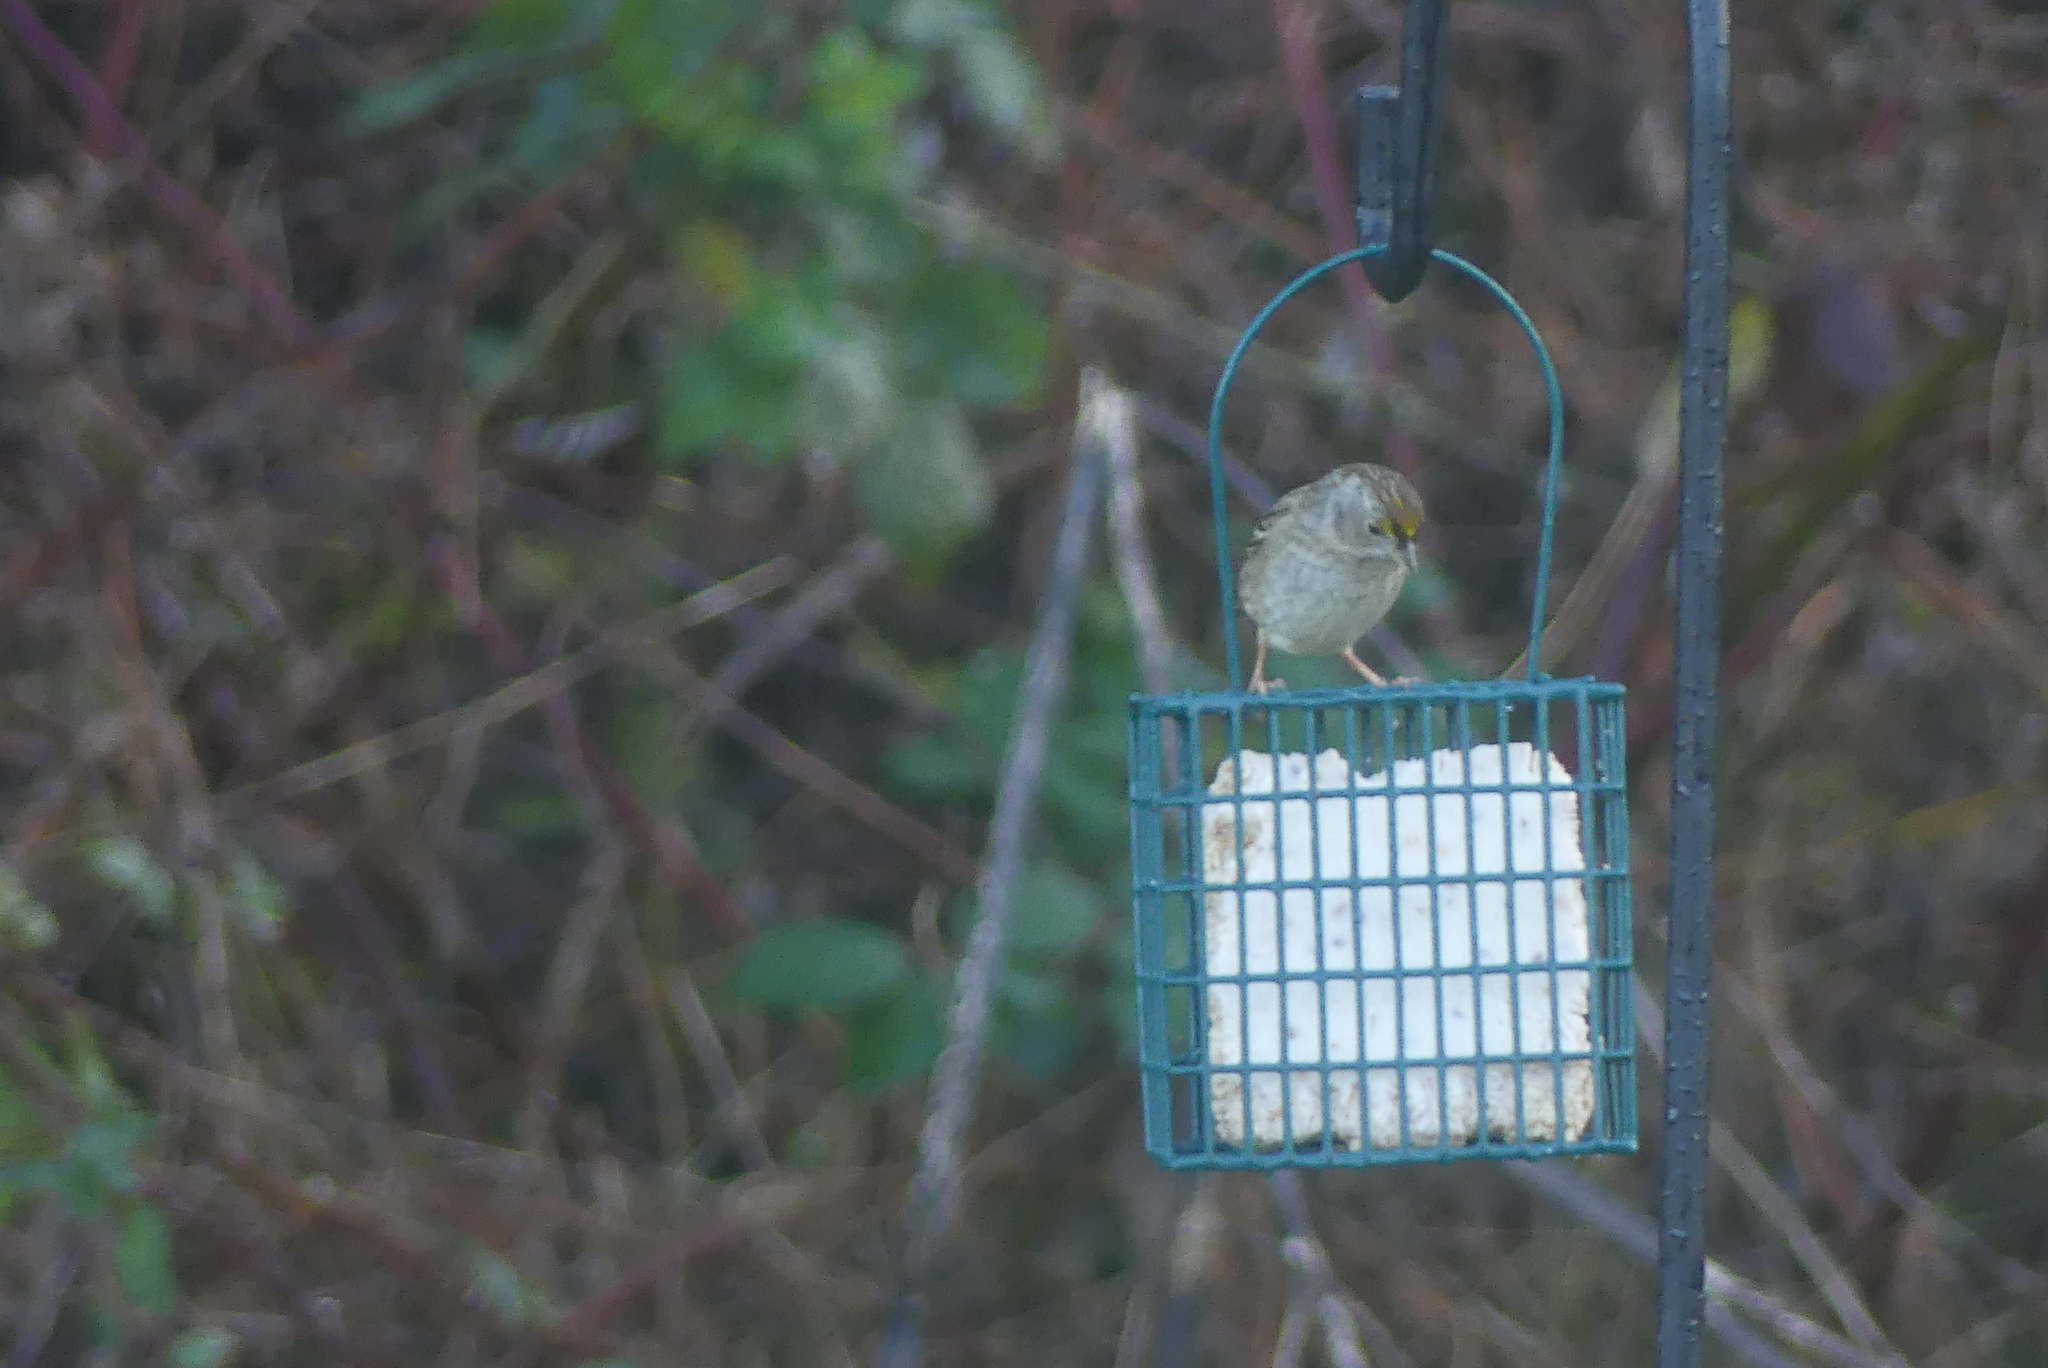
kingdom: Animalia
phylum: Chordata
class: Aves
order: Passeriformes
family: Passerellidae
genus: Zonotrichia
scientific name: Zonotrichia atricapilla
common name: Golden-crowned sparrow
